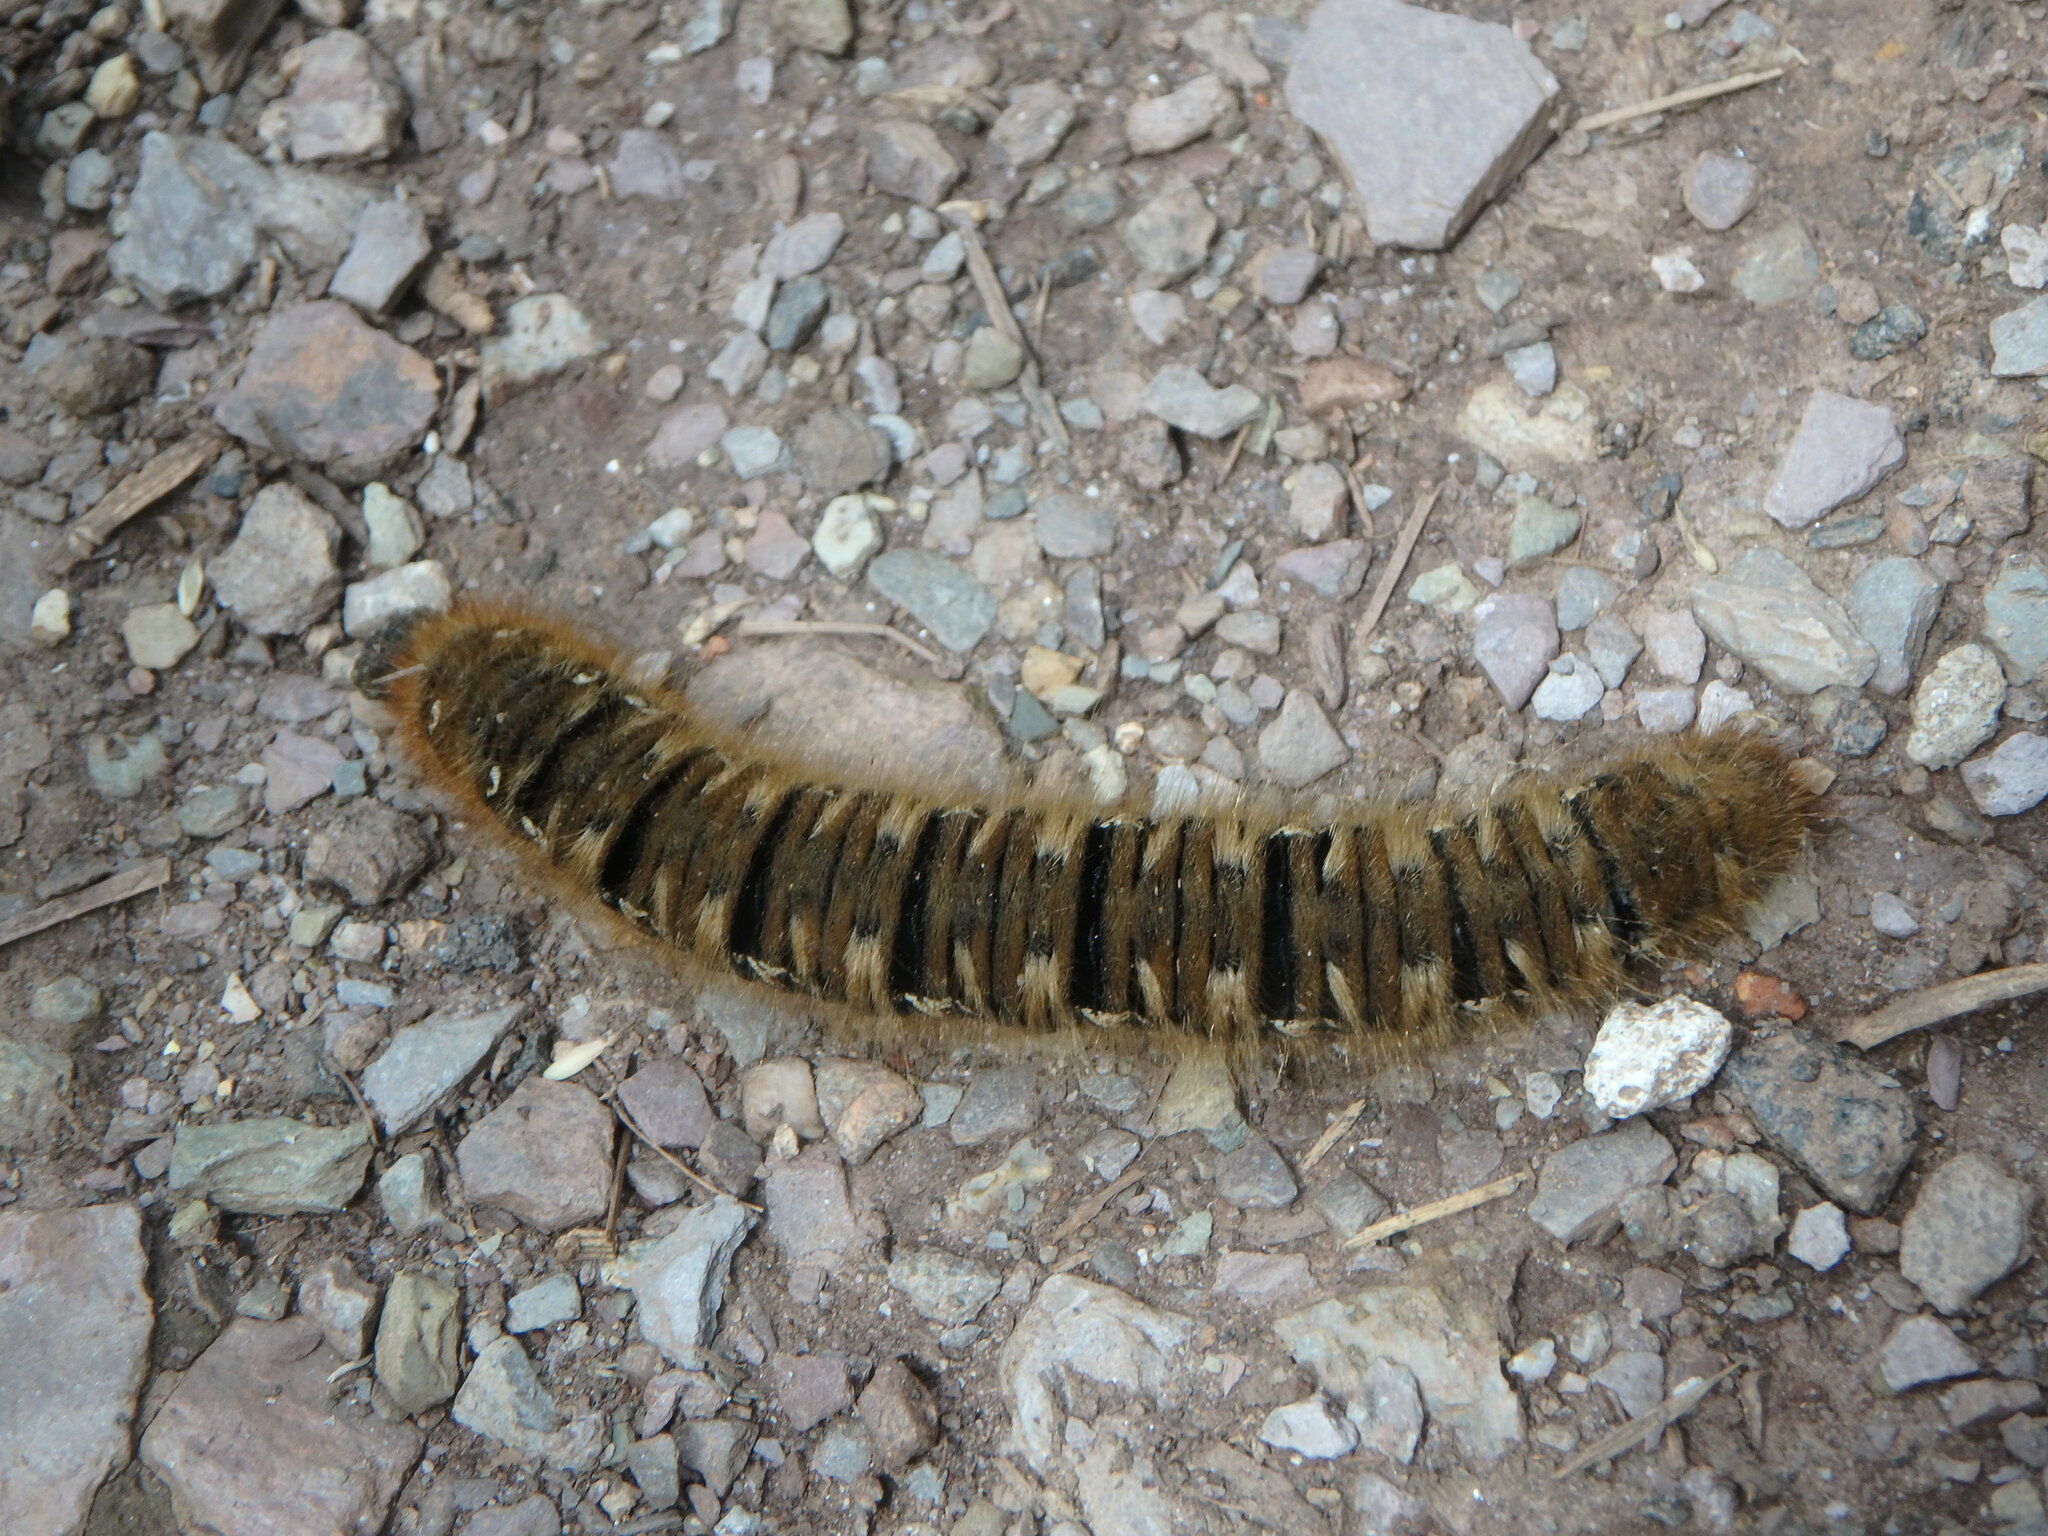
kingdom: Animalia
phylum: Arthropoda
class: Insecta
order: Lepidoptera
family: Lasiocampidae
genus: Lasiocampa
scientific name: Lasiocampa quercus
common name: Oak eggar
